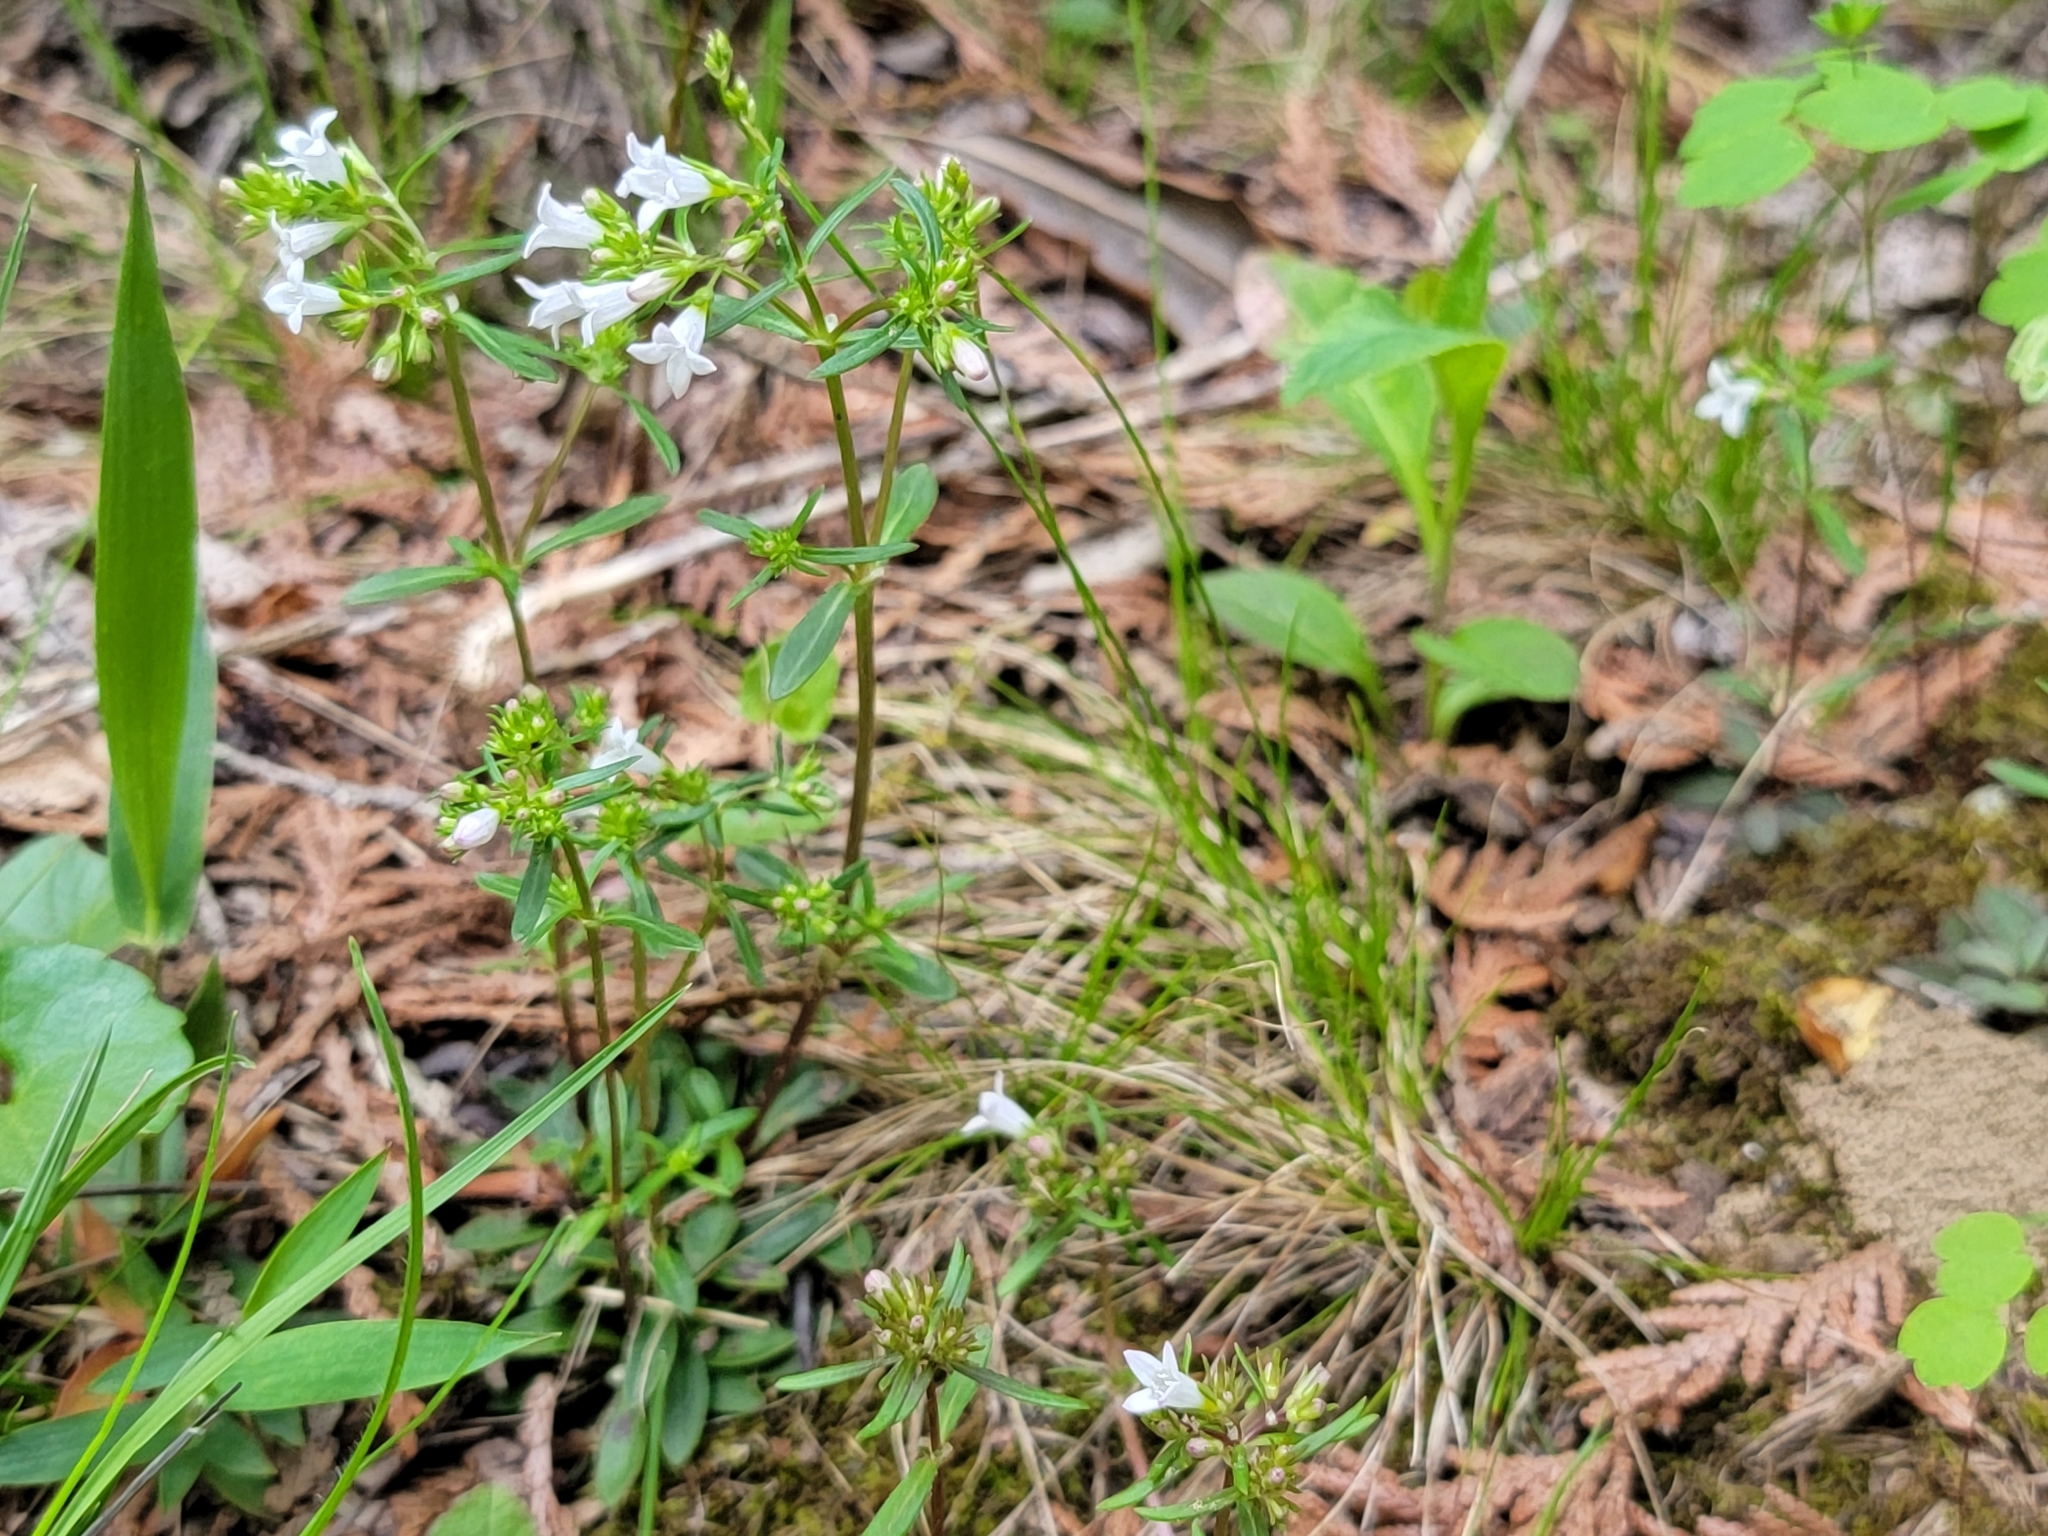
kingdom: Plantae
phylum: Tracheophyta
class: Magnoliopsida
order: Gentianales
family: Rubiaceae
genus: Houstonia
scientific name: Houstonia longifolia
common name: Long-leaved bluets
